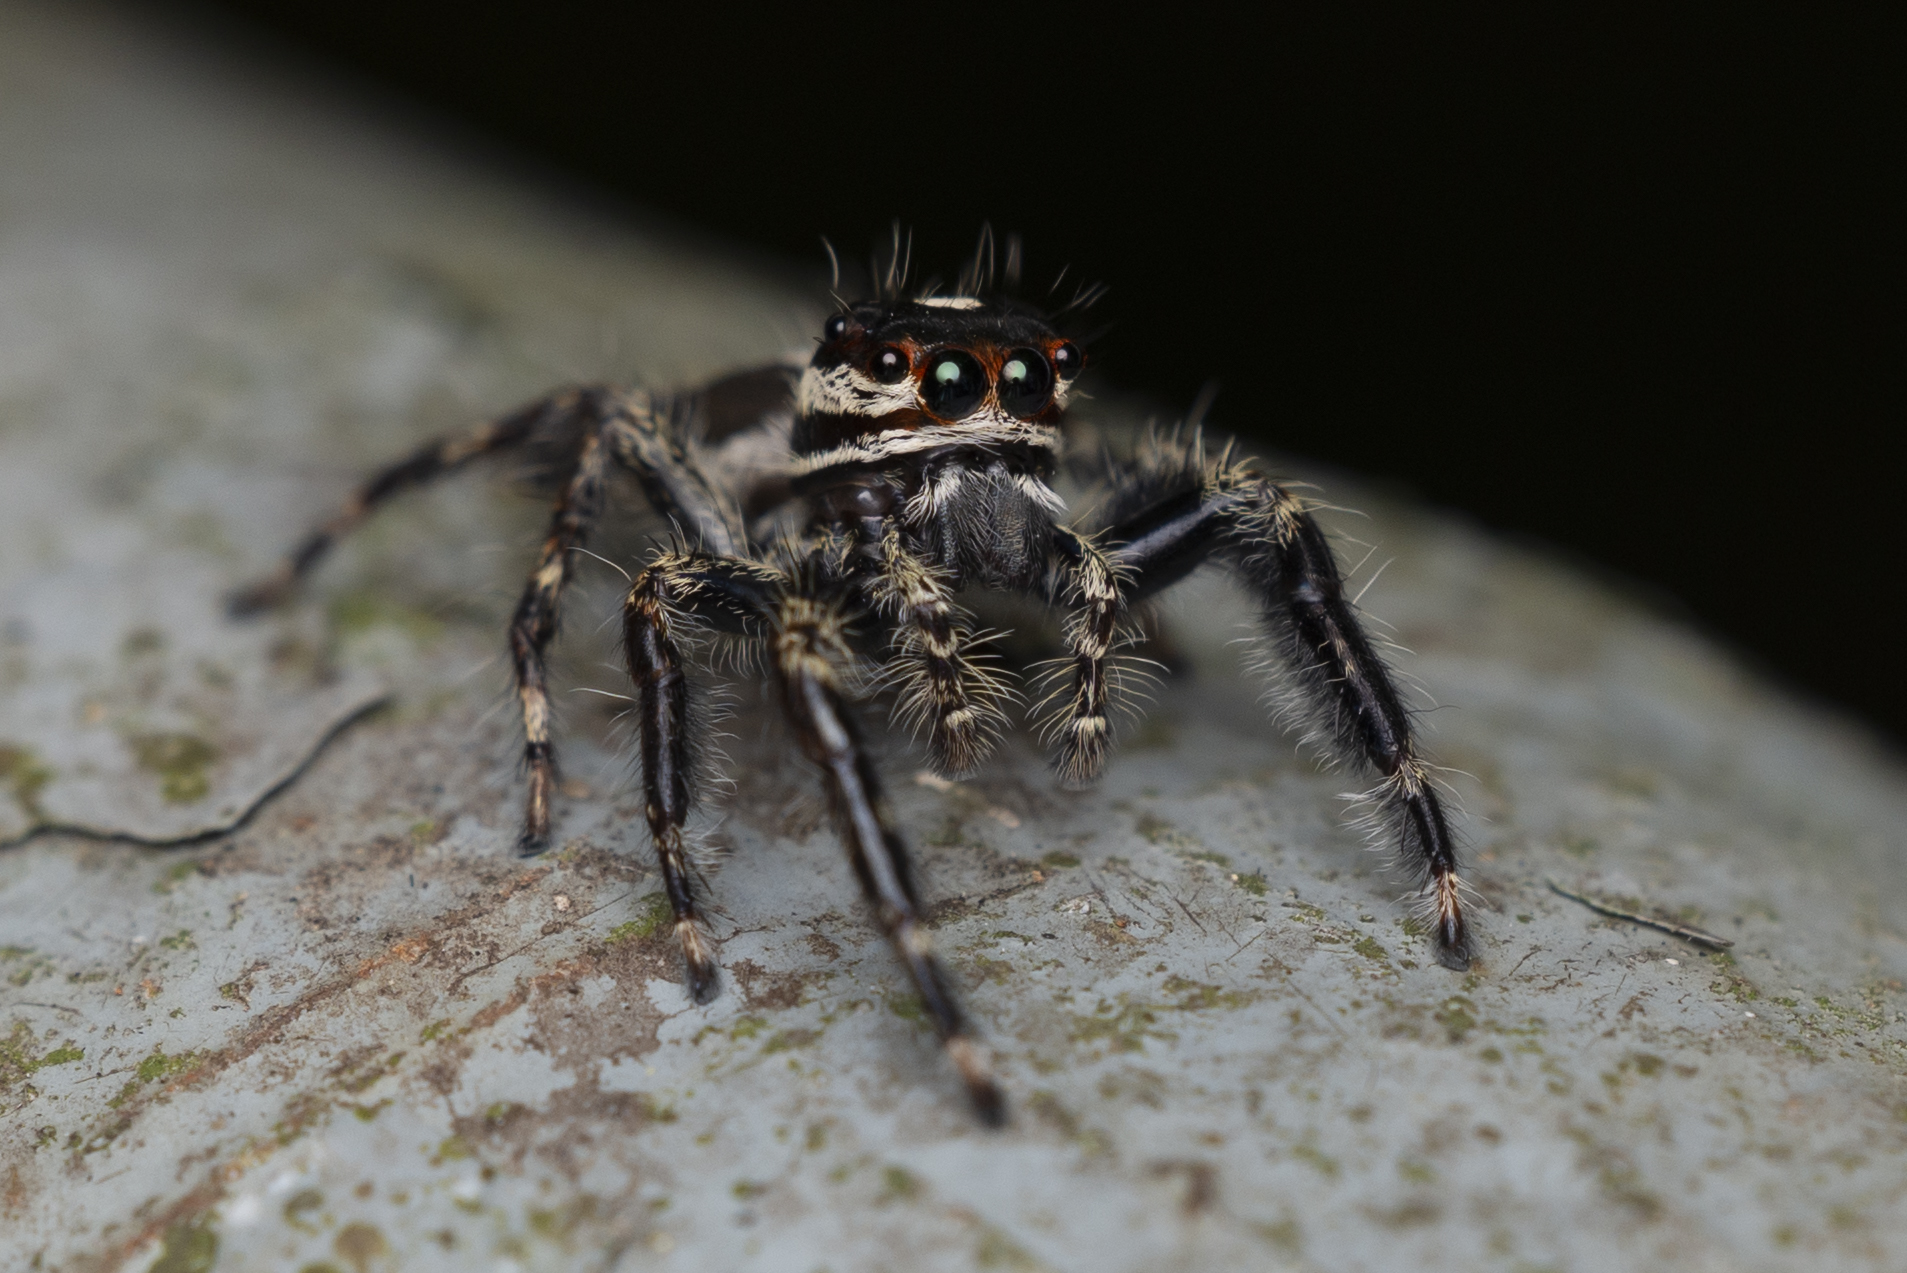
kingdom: Animalia
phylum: Arthropoda
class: Arachnida
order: Araneae
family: Salticidae
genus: Pancorius
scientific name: Pancorius crassipes
